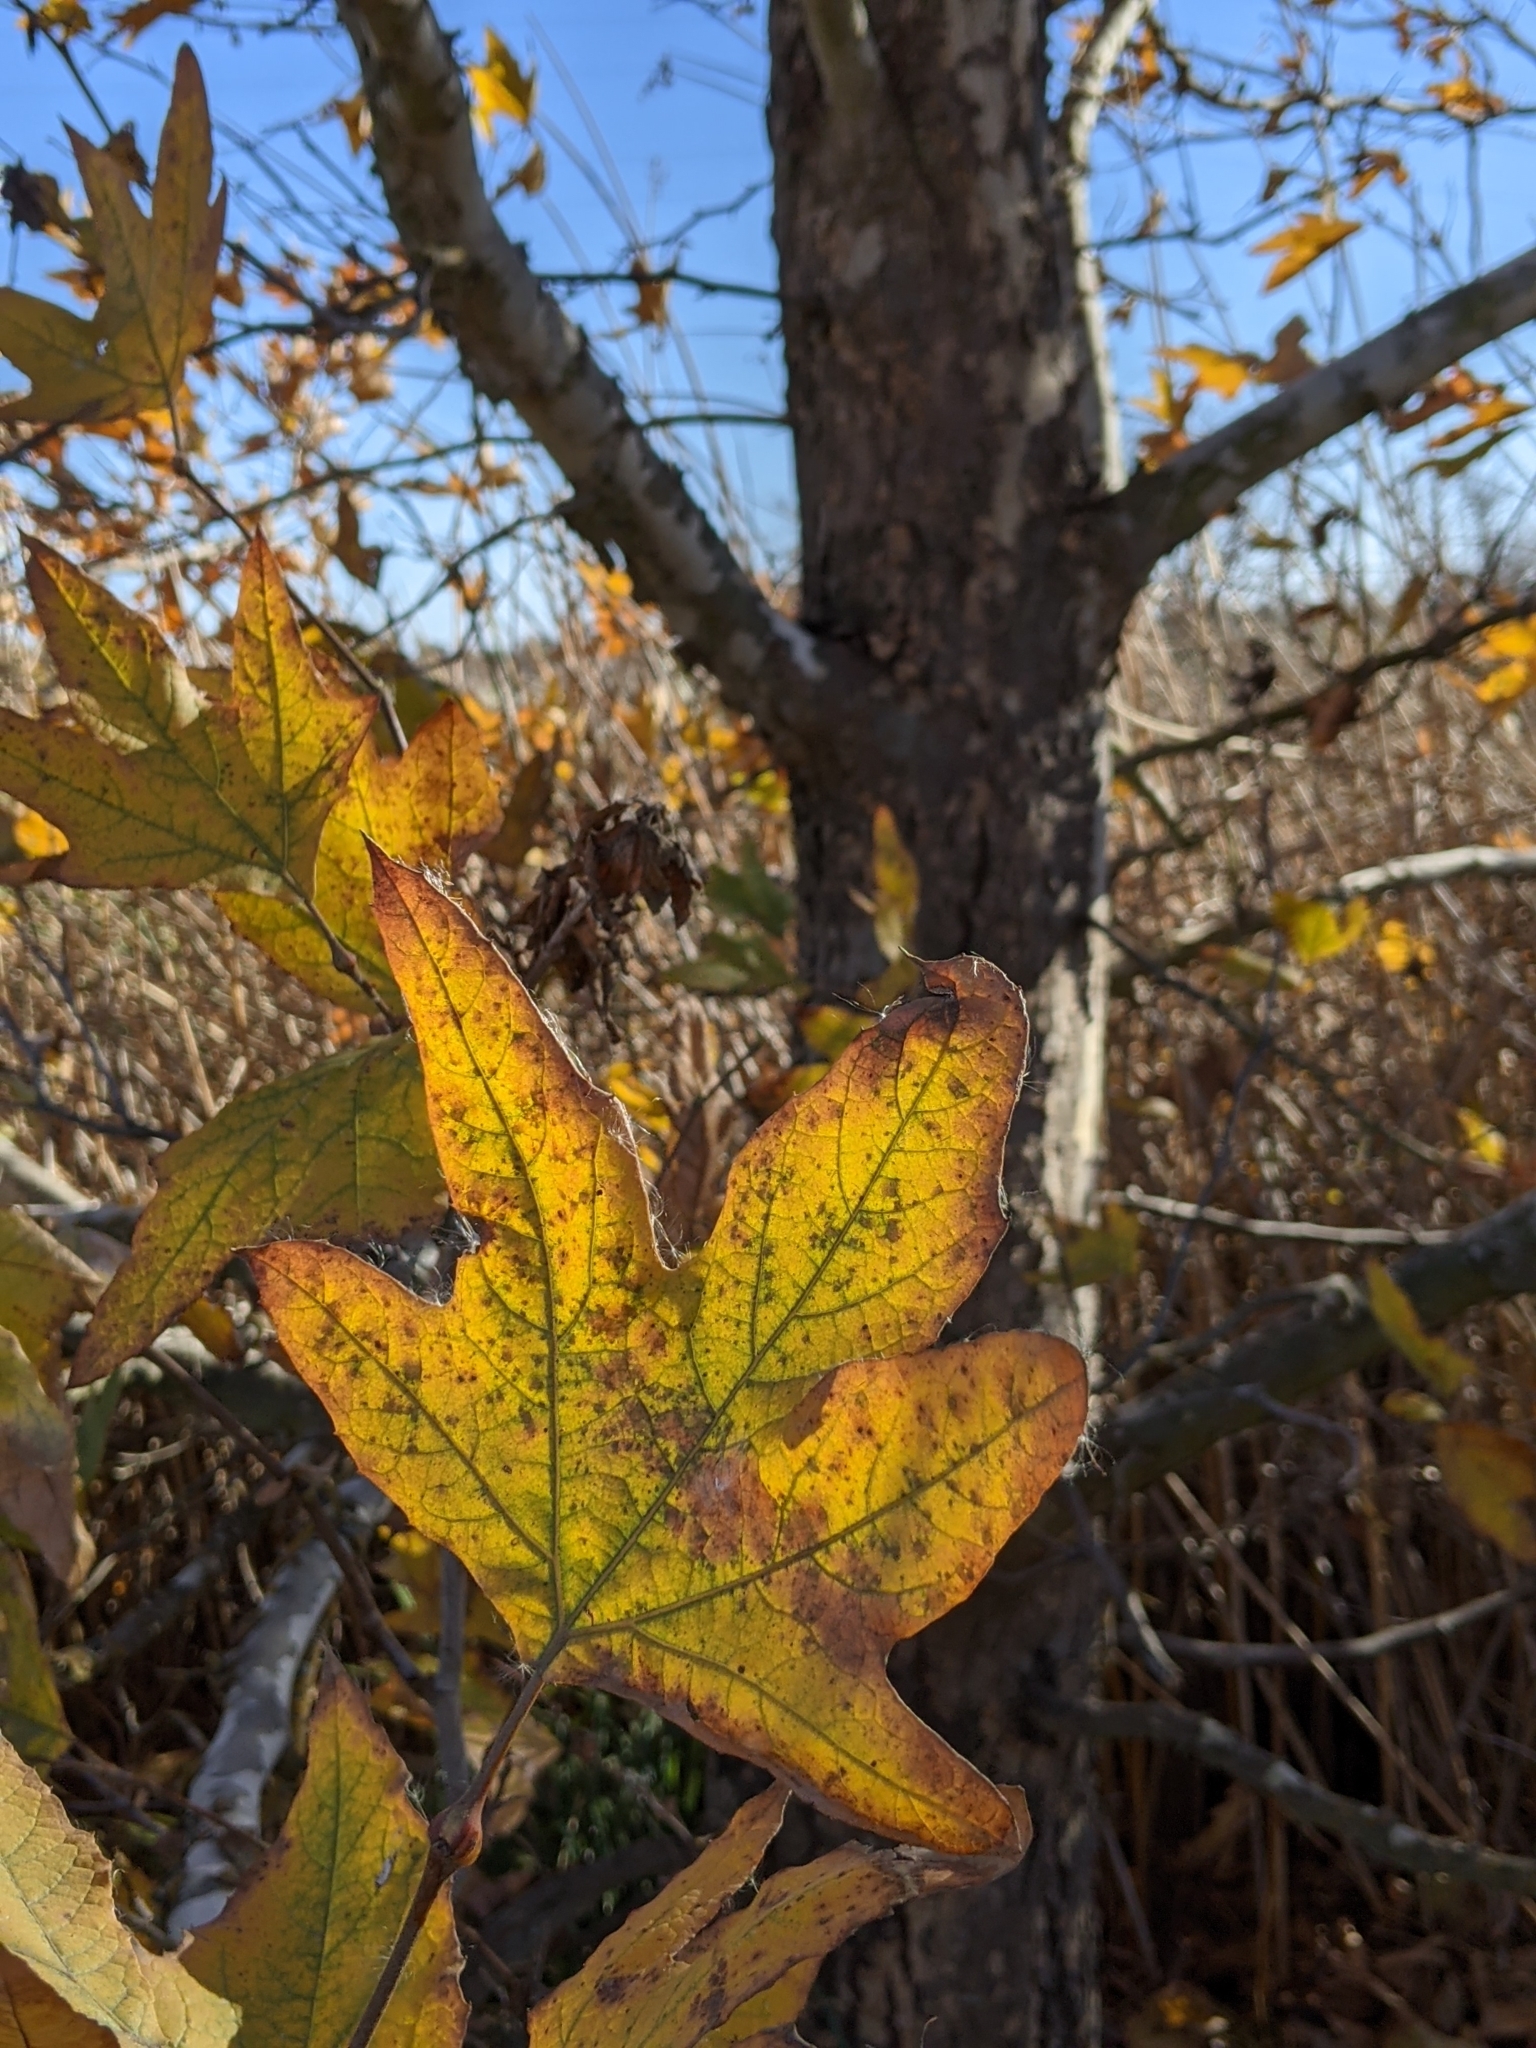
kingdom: Plantae
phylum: Tracheophyta
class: Magnoliopsida
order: Proteales
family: Platanaceae
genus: Platanus
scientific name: Platanus racemosa
